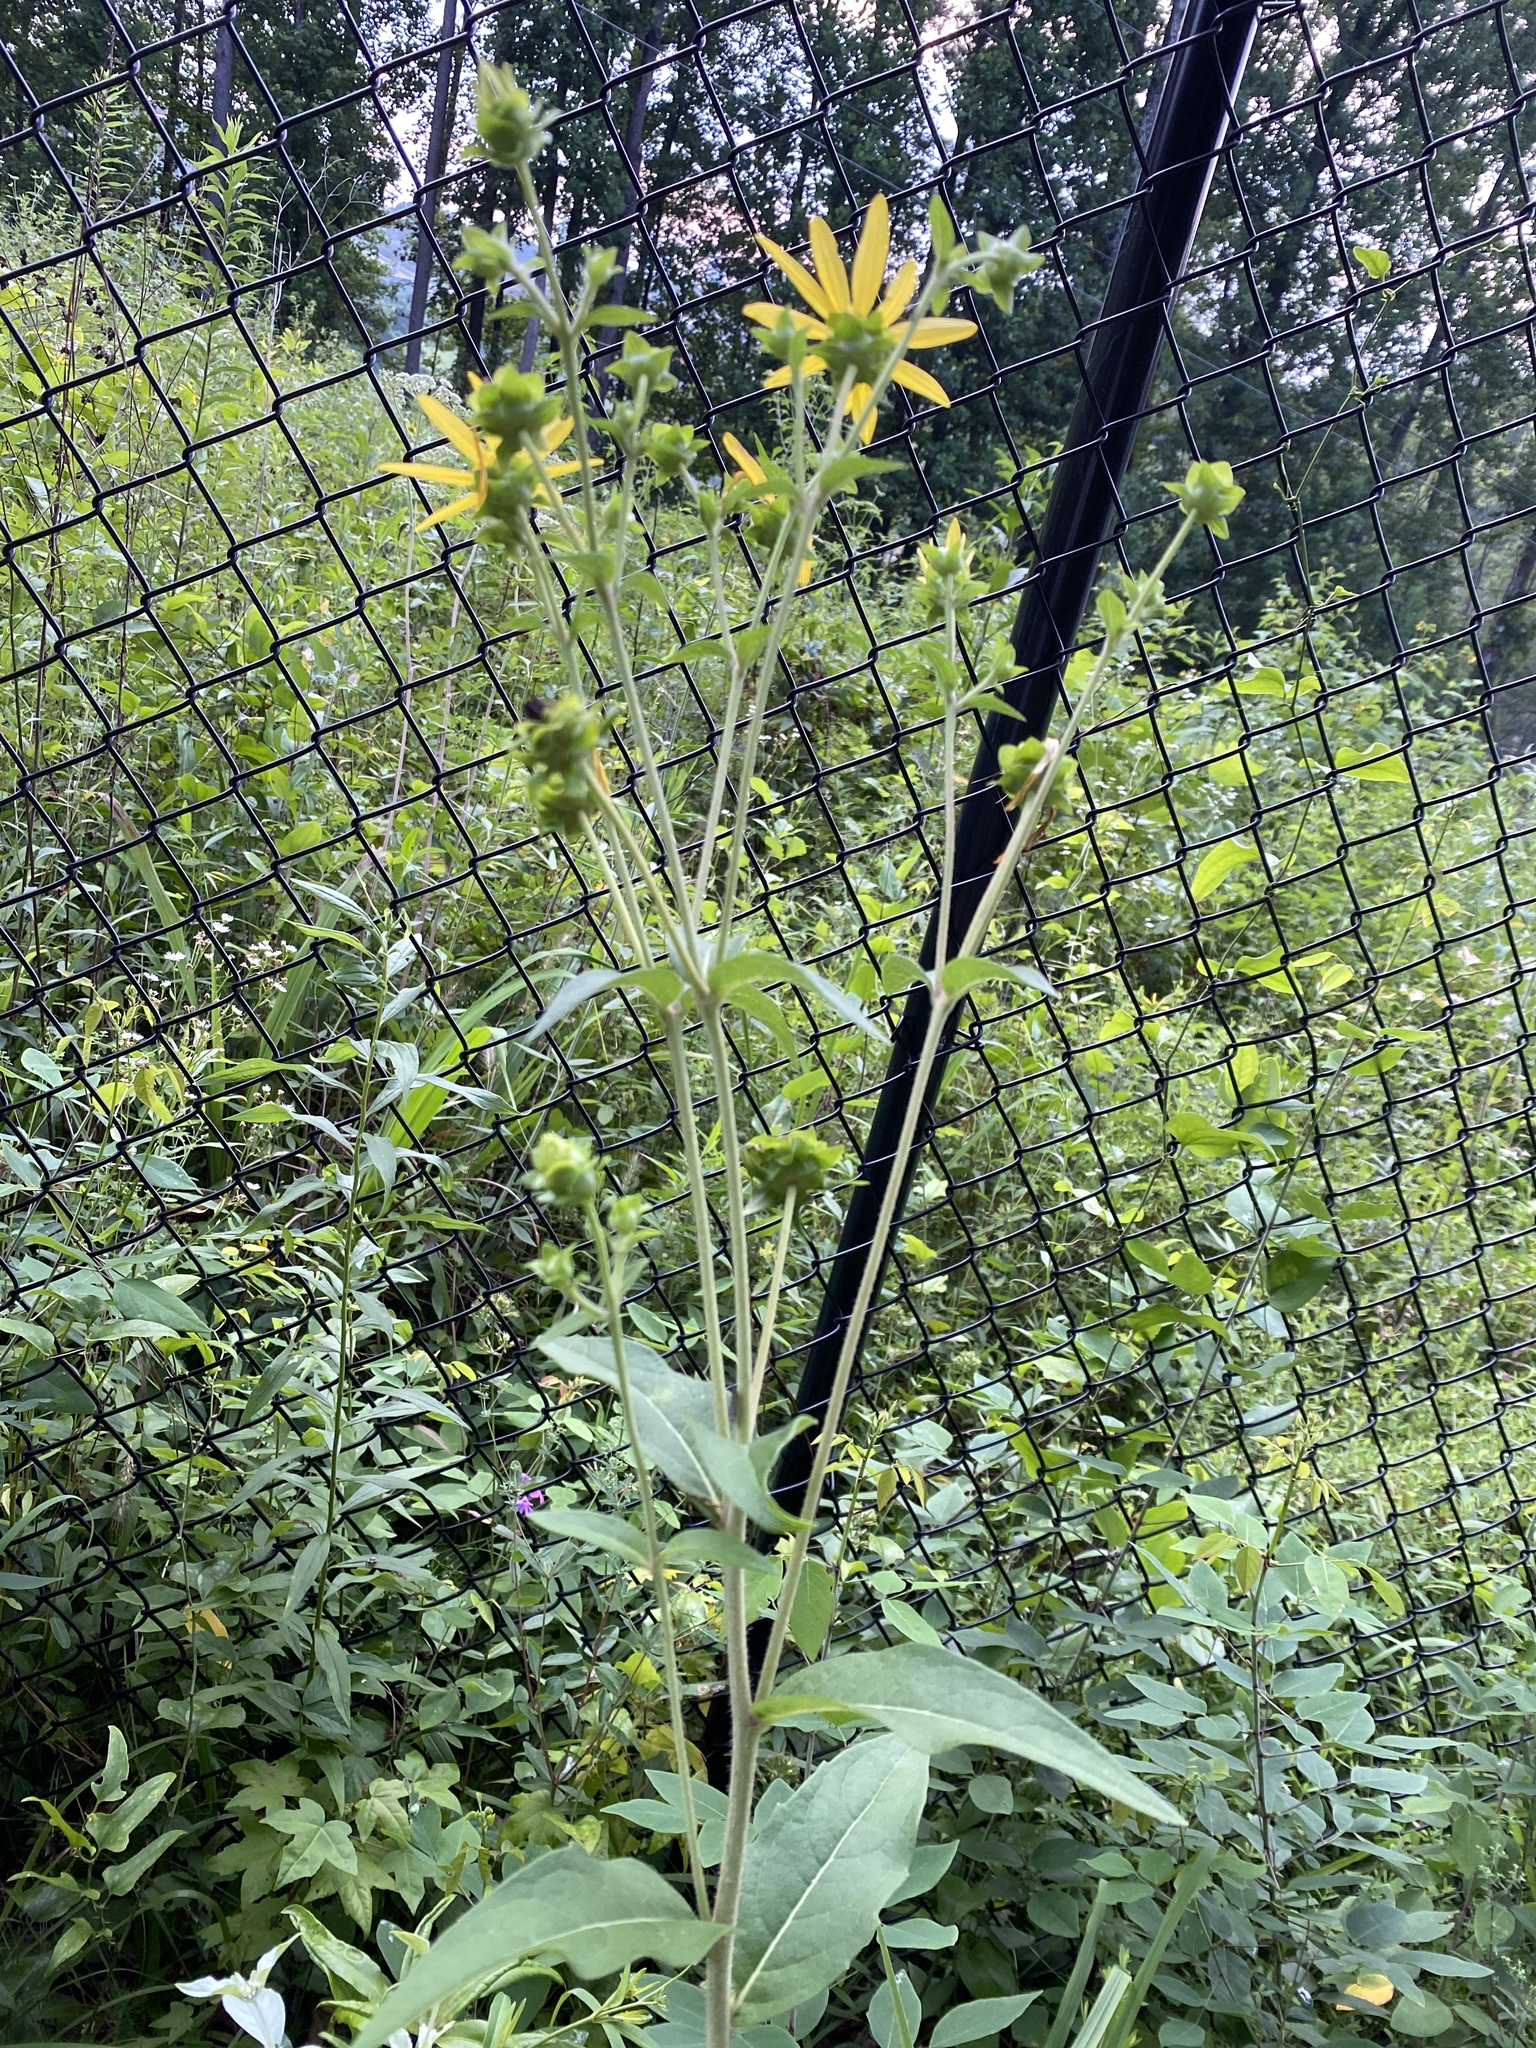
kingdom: Plantae
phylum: Tracheophyta
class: Magnoliopsida
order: Asterales
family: Asteraceae
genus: Silphium
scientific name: Silphium asteriscus
